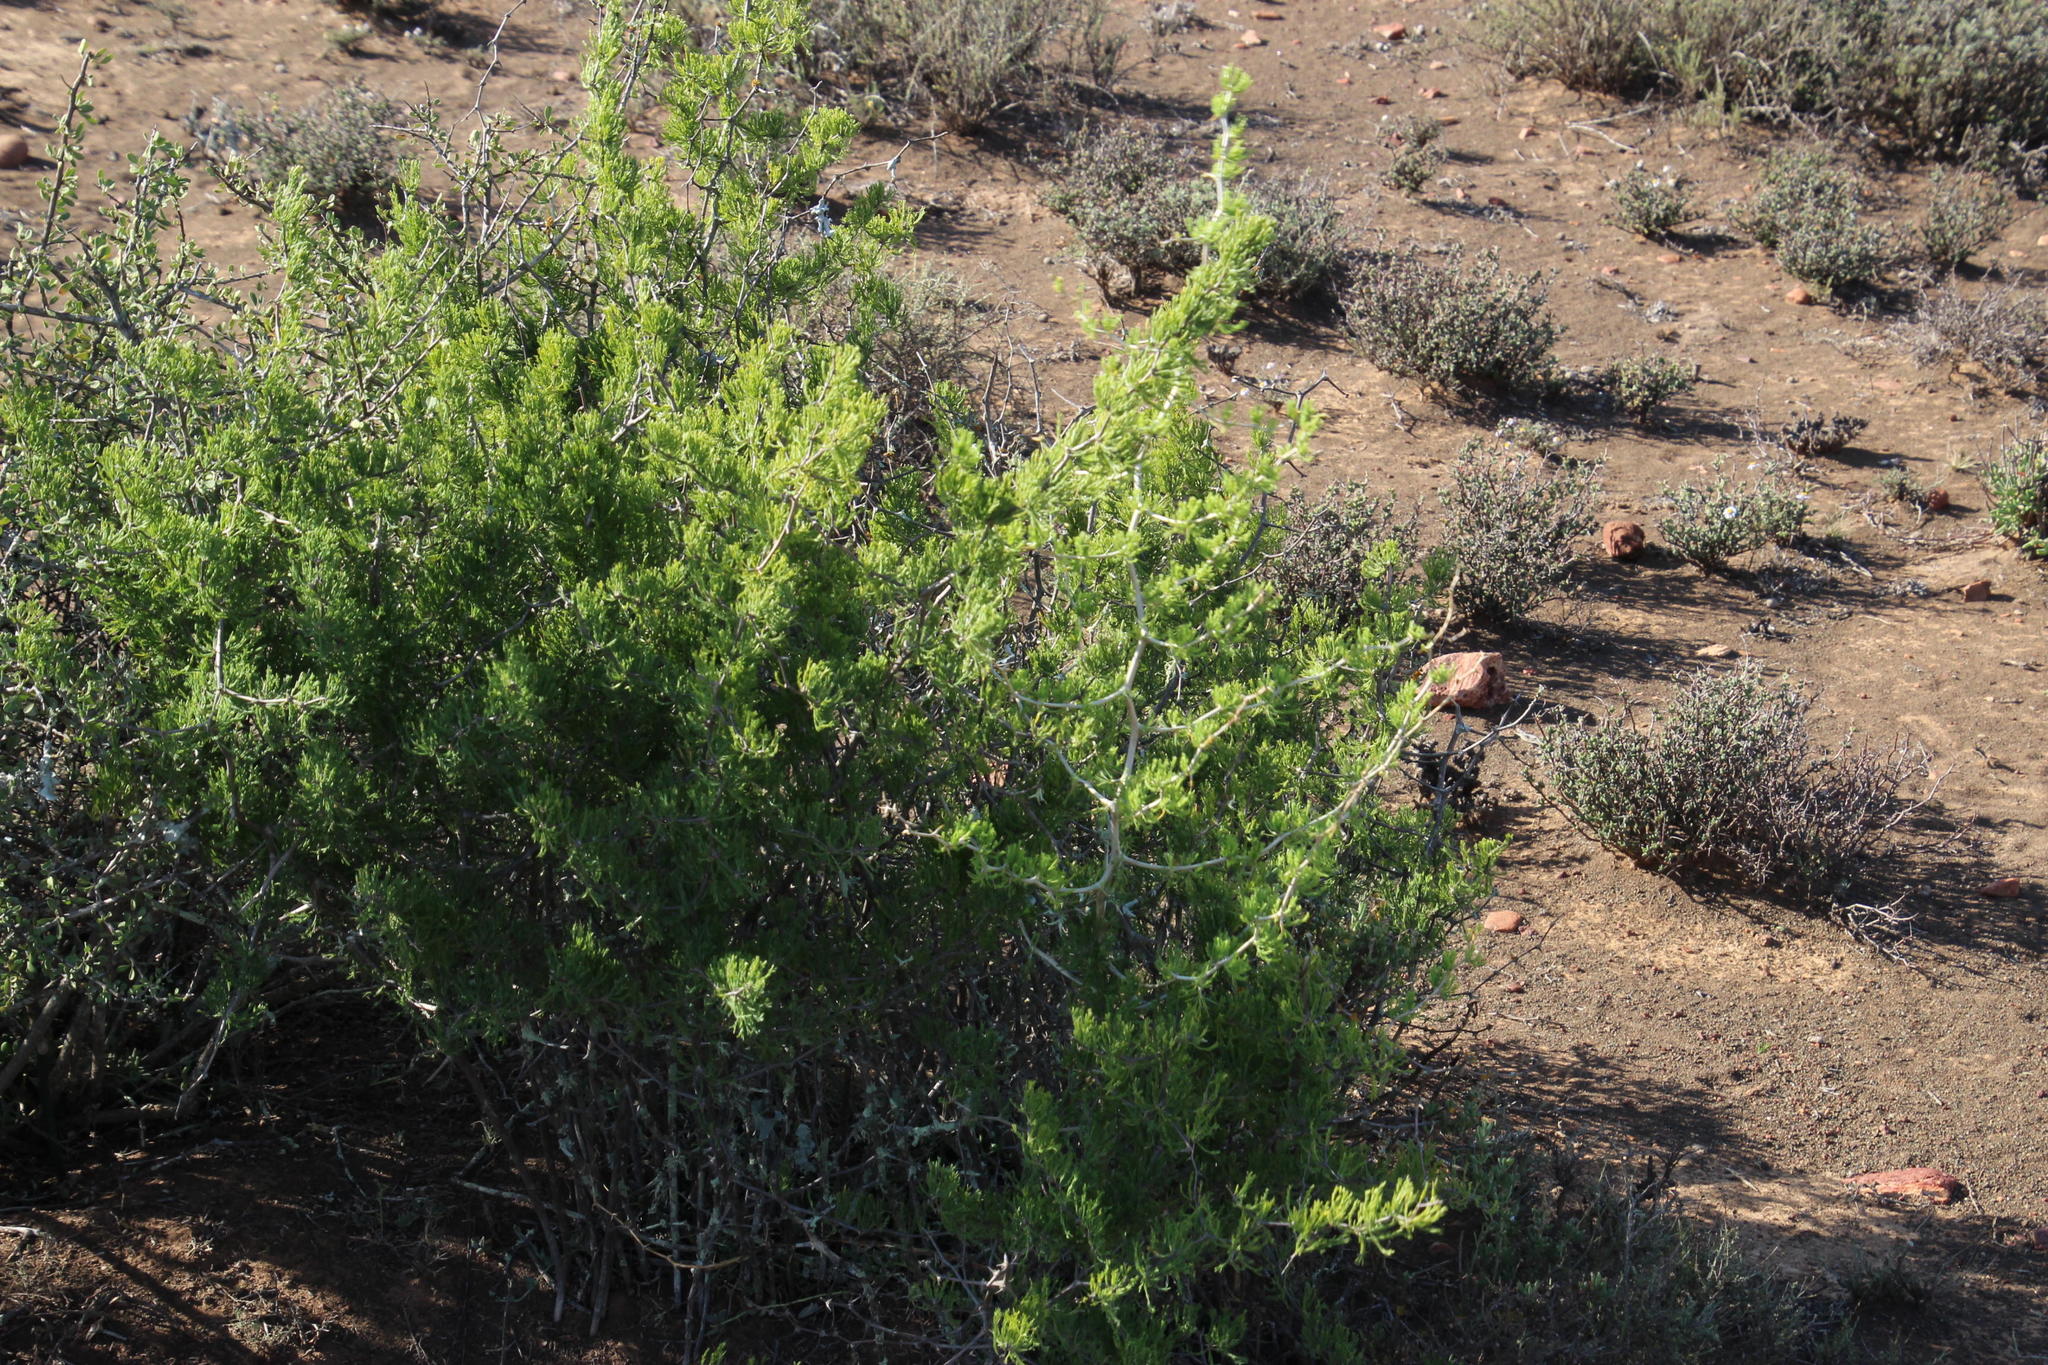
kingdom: Plantae
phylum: Tracheophyta
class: Liliopsida
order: Asparagales
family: Asparagaceae
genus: Asparagus
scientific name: Asparagus burchellii
